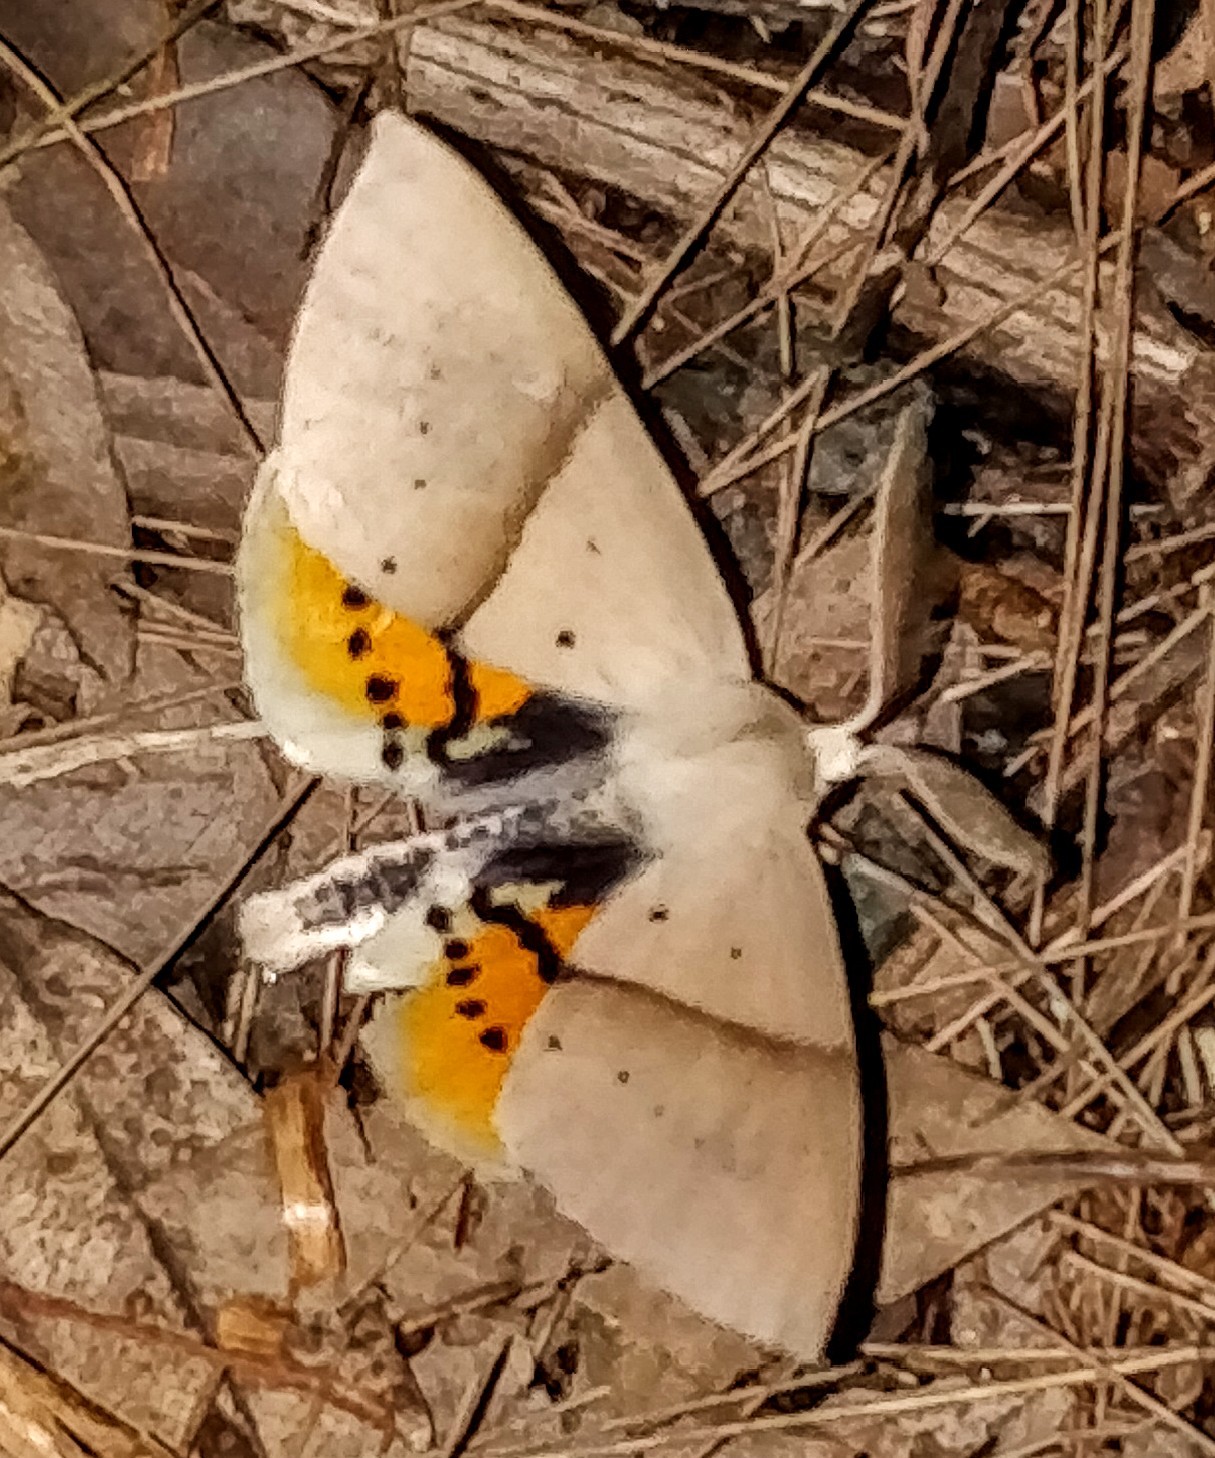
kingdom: Animalia
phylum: Arthropoda
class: Insecta
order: Lepidoptera
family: Geometridae
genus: Gastrophora
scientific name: Gastrophora henricaria
